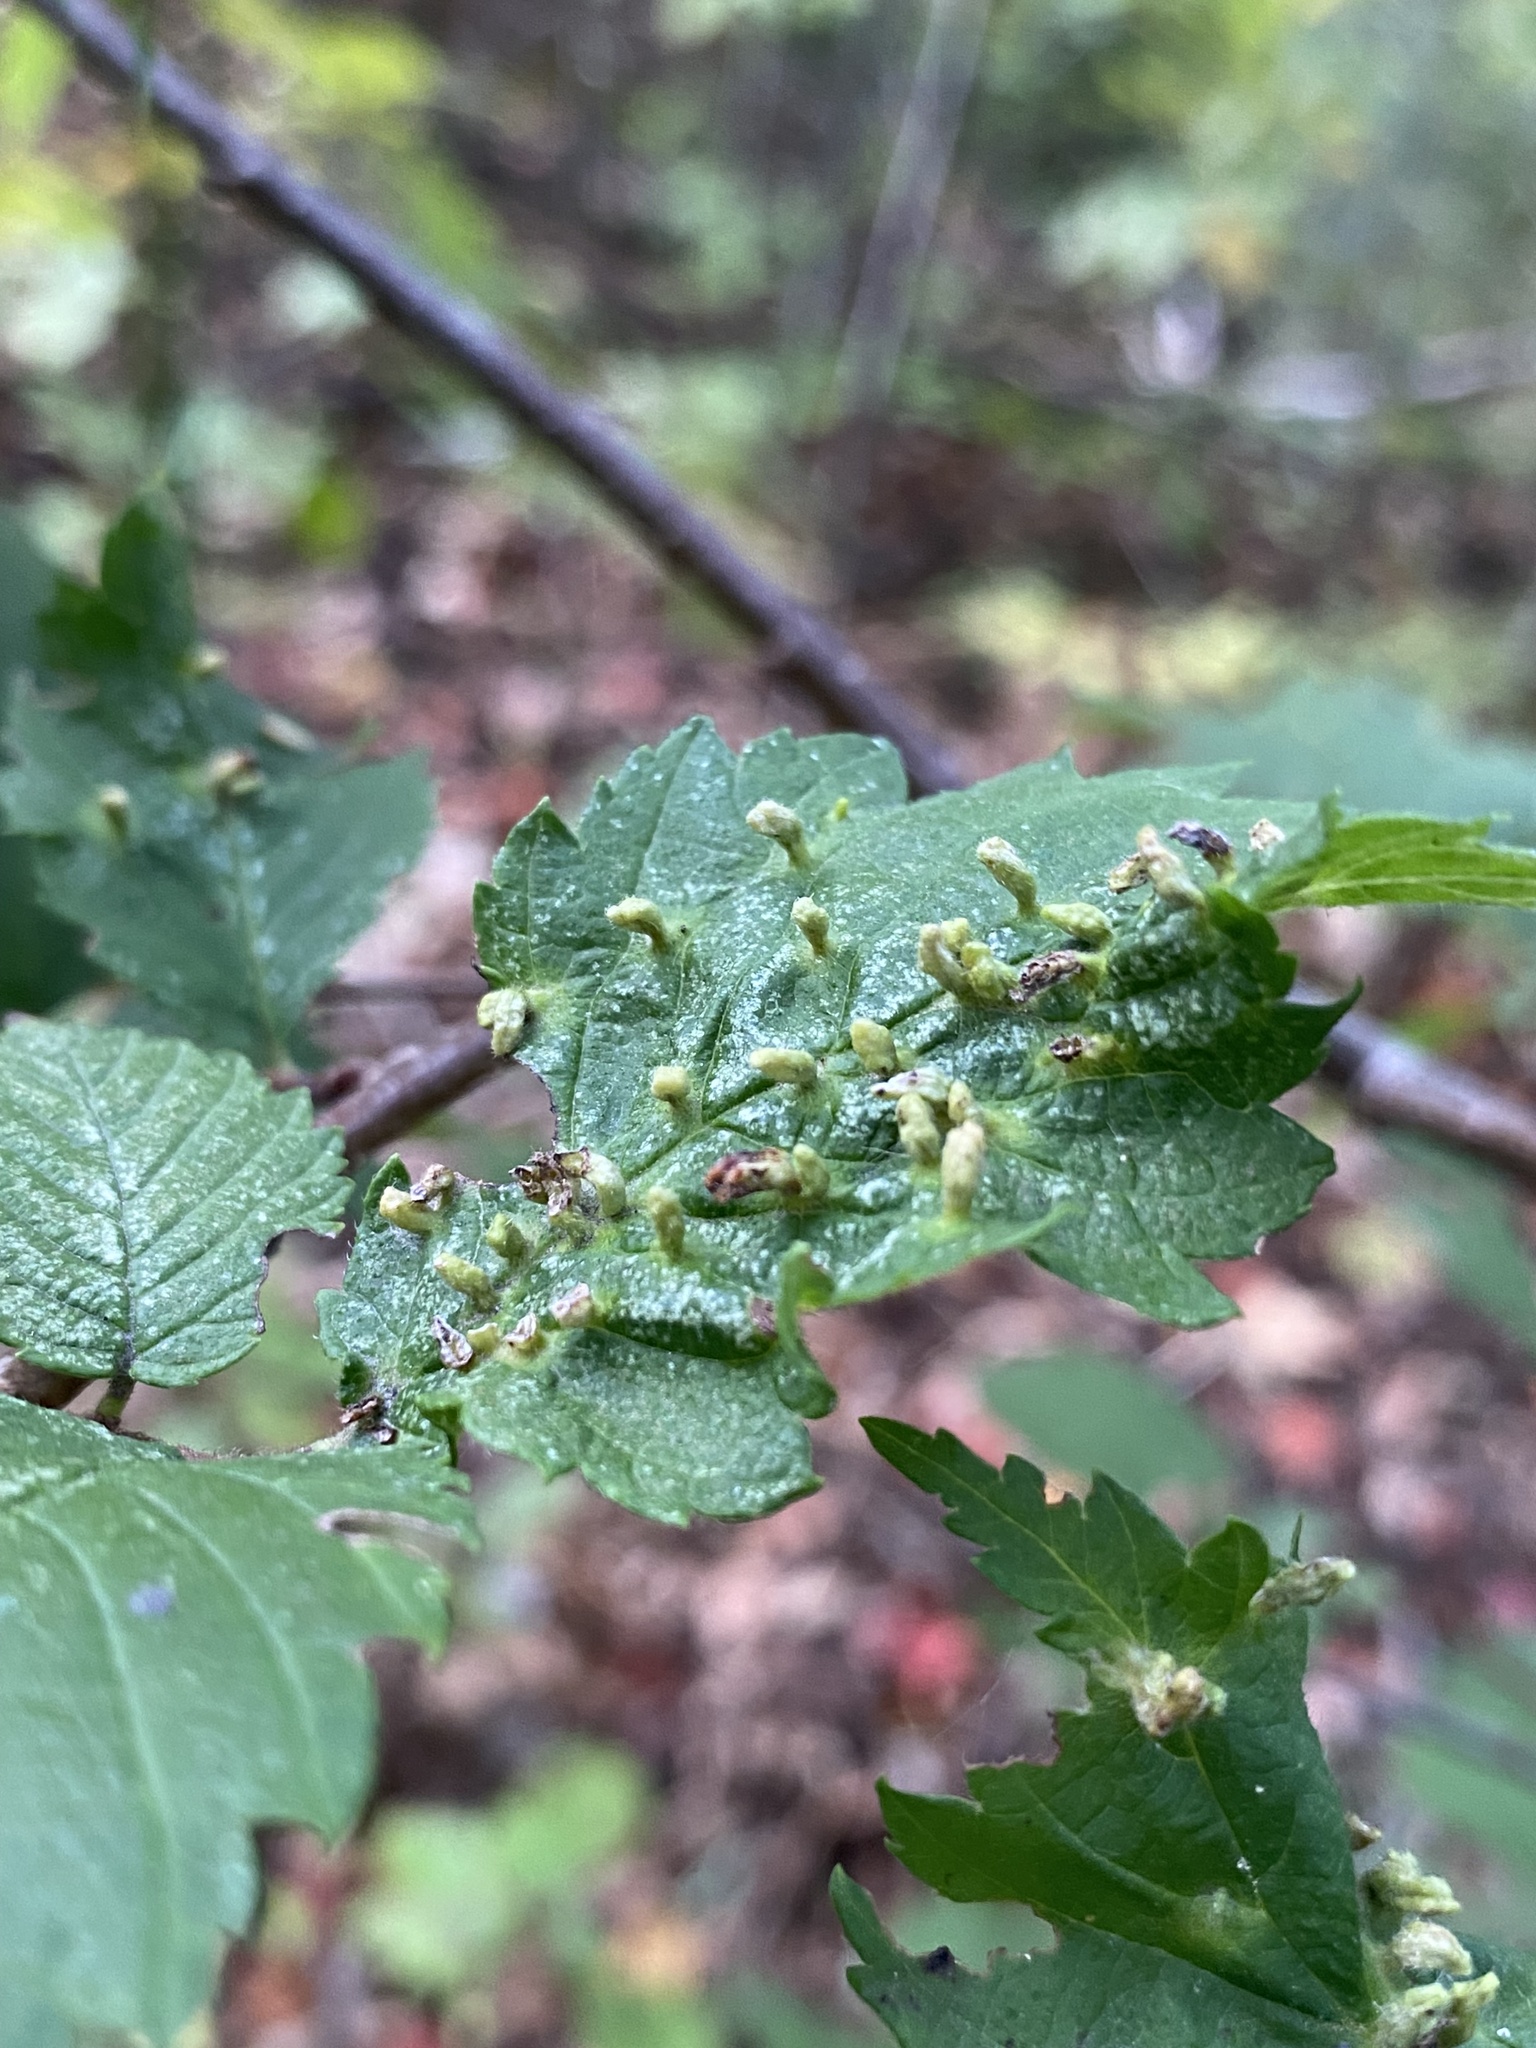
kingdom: Animalia
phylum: Arthropoda
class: Arachnida
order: Trombidiformes
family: Eriophyidae
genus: Aceria
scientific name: Aceria
